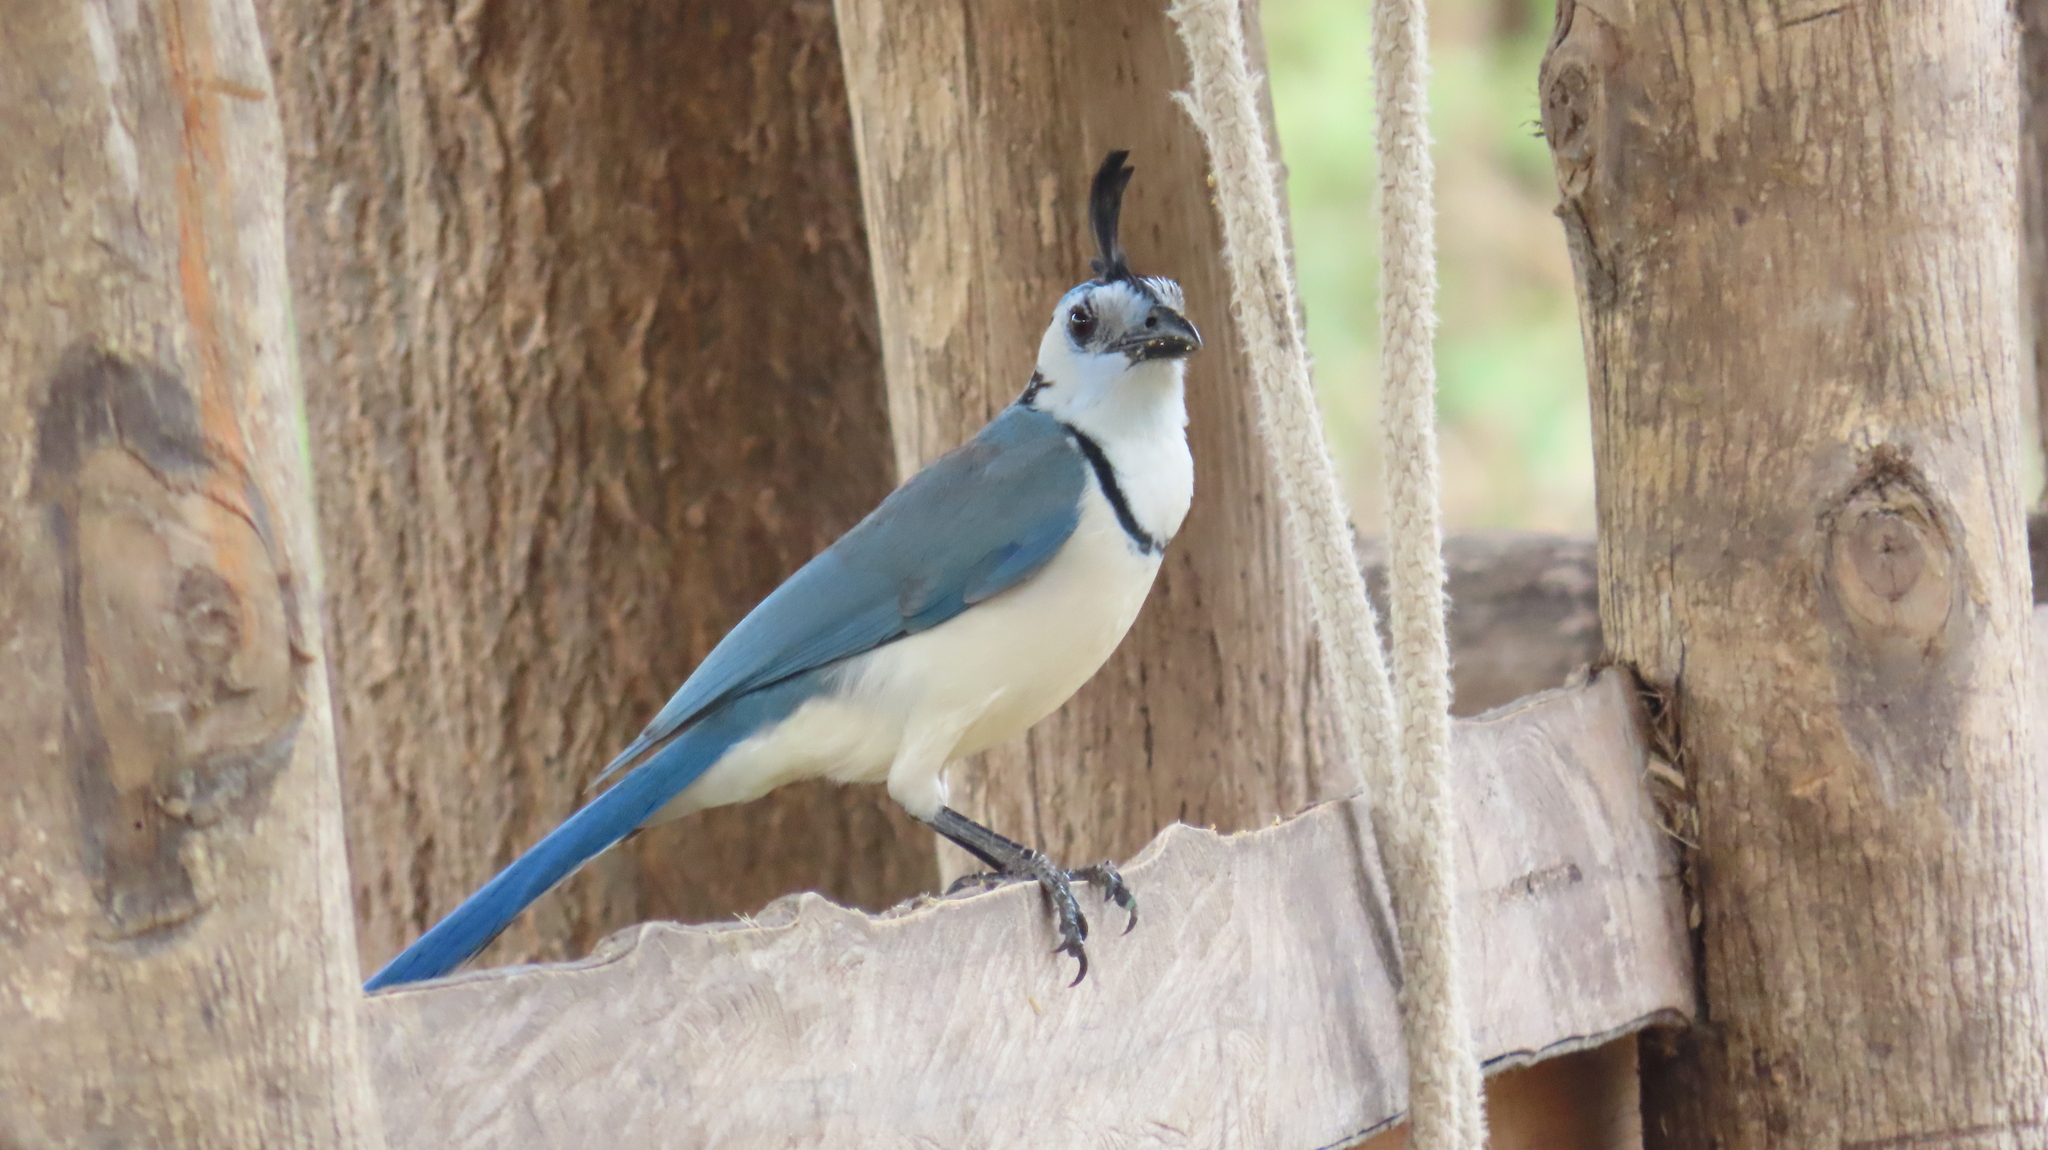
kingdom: Animalia
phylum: Chordata
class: Aves
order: Passeriformes
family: Corvidae
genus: Calocitta
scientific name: Calocitta formosa
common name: White-throated magpie-jay
